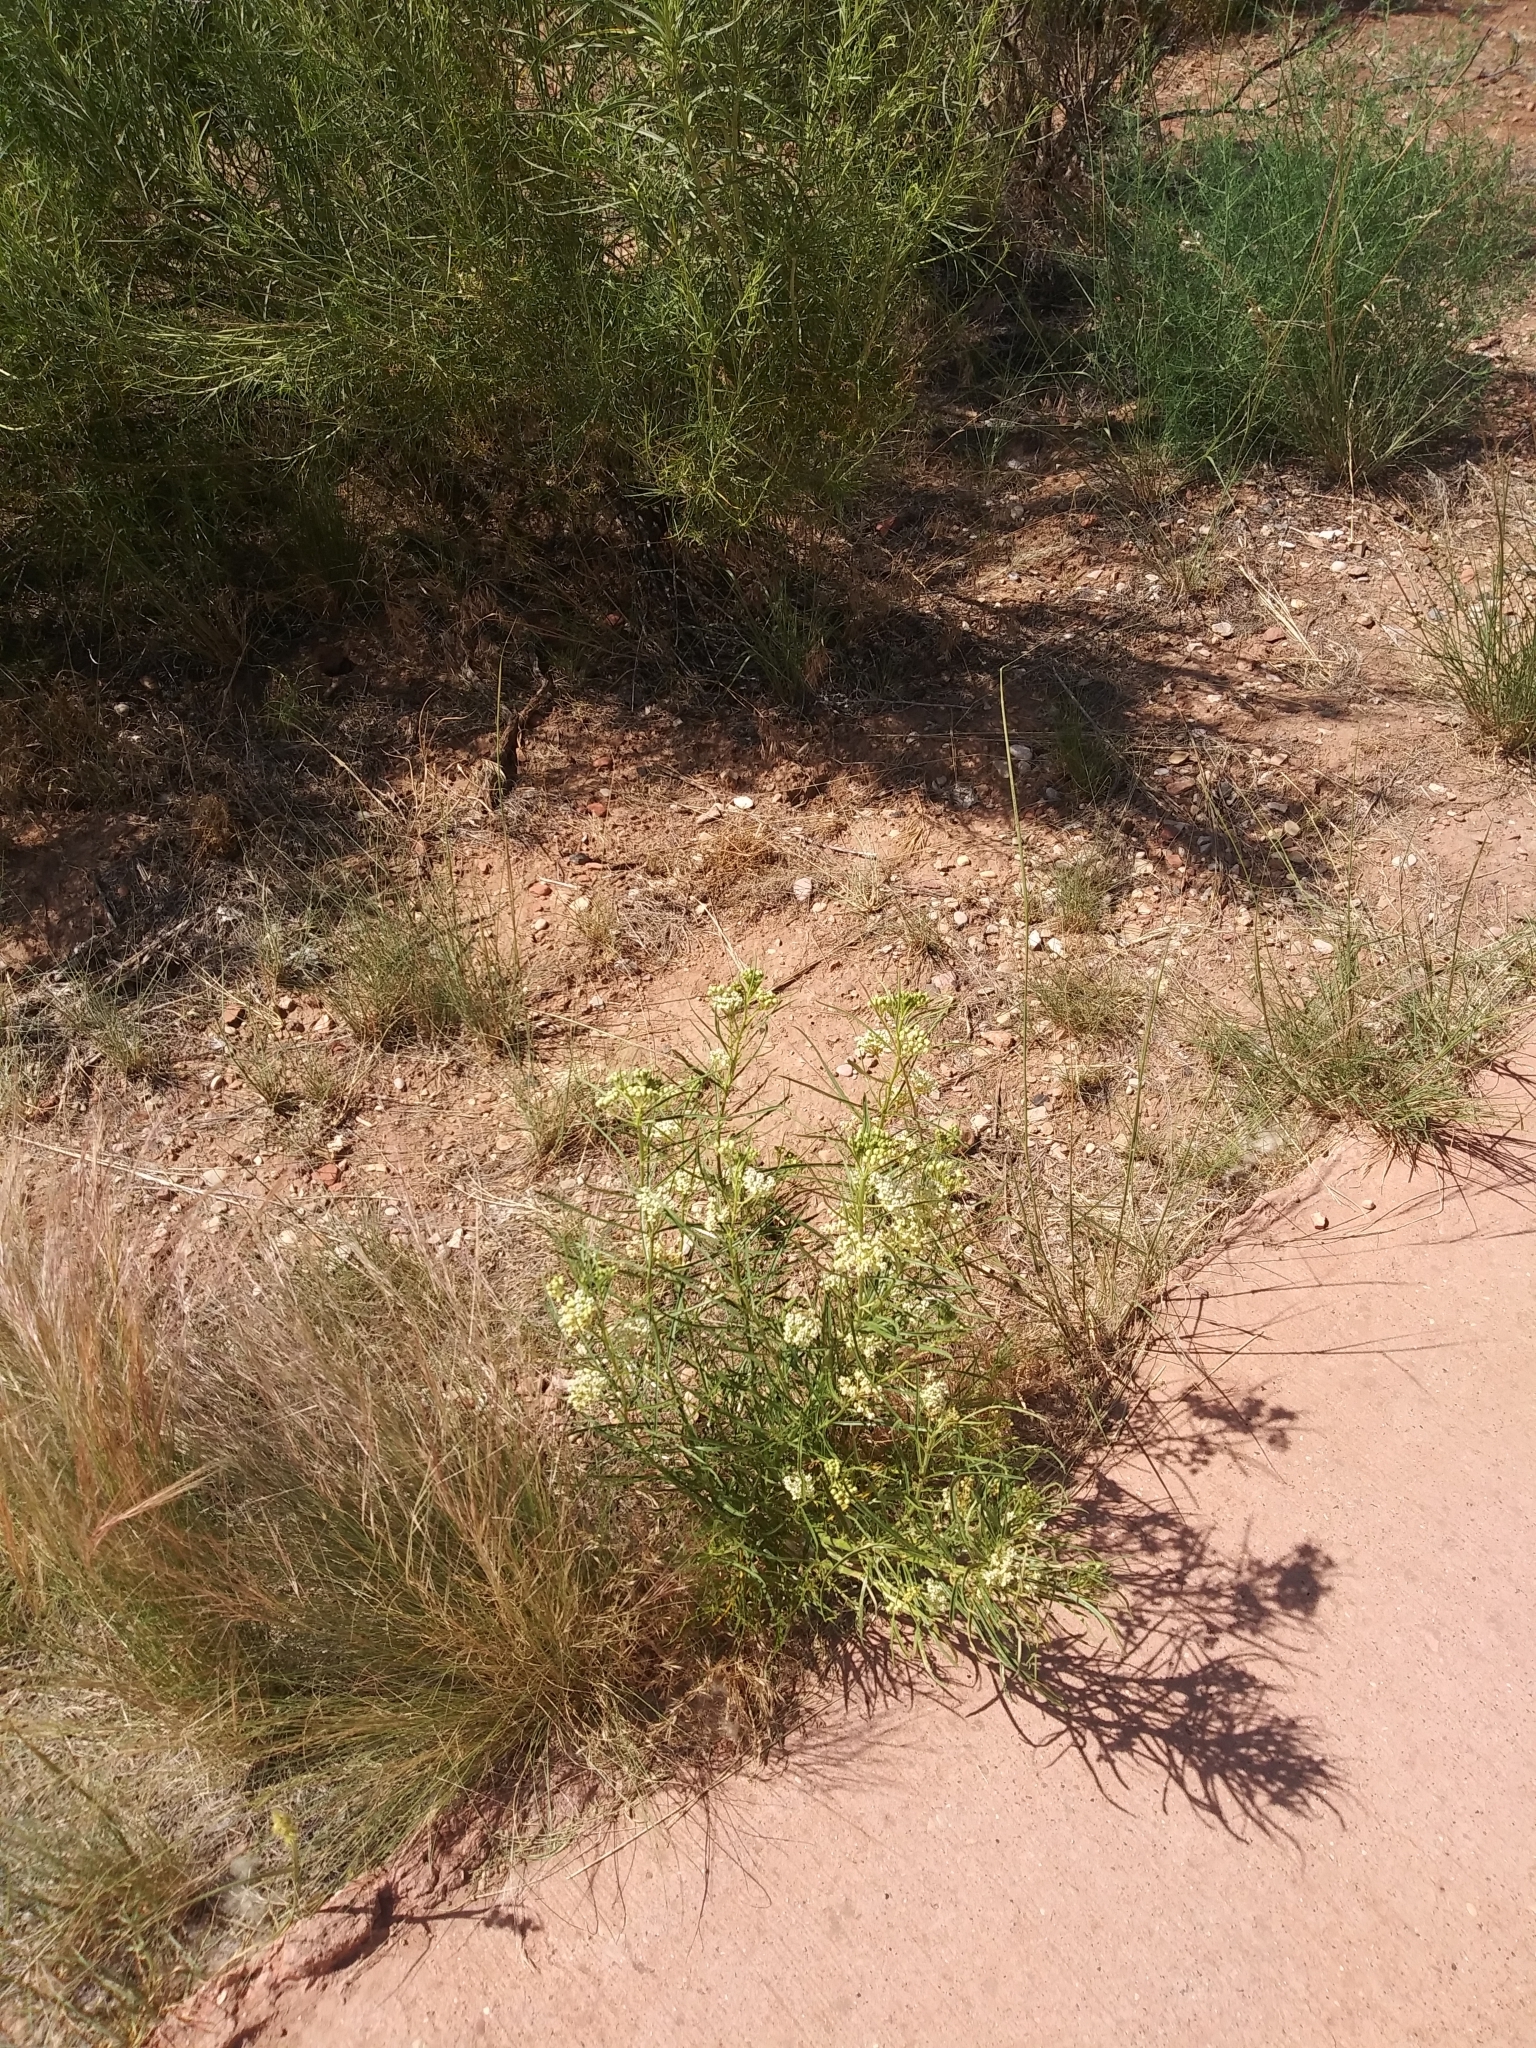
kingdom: Plantae
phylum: Tracheophyta
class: Magnoliopsida
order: Gentianales
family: Apocynaceae
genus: Asclepias
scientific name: Asclepias subverticillata
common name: Horsetail milkweed
